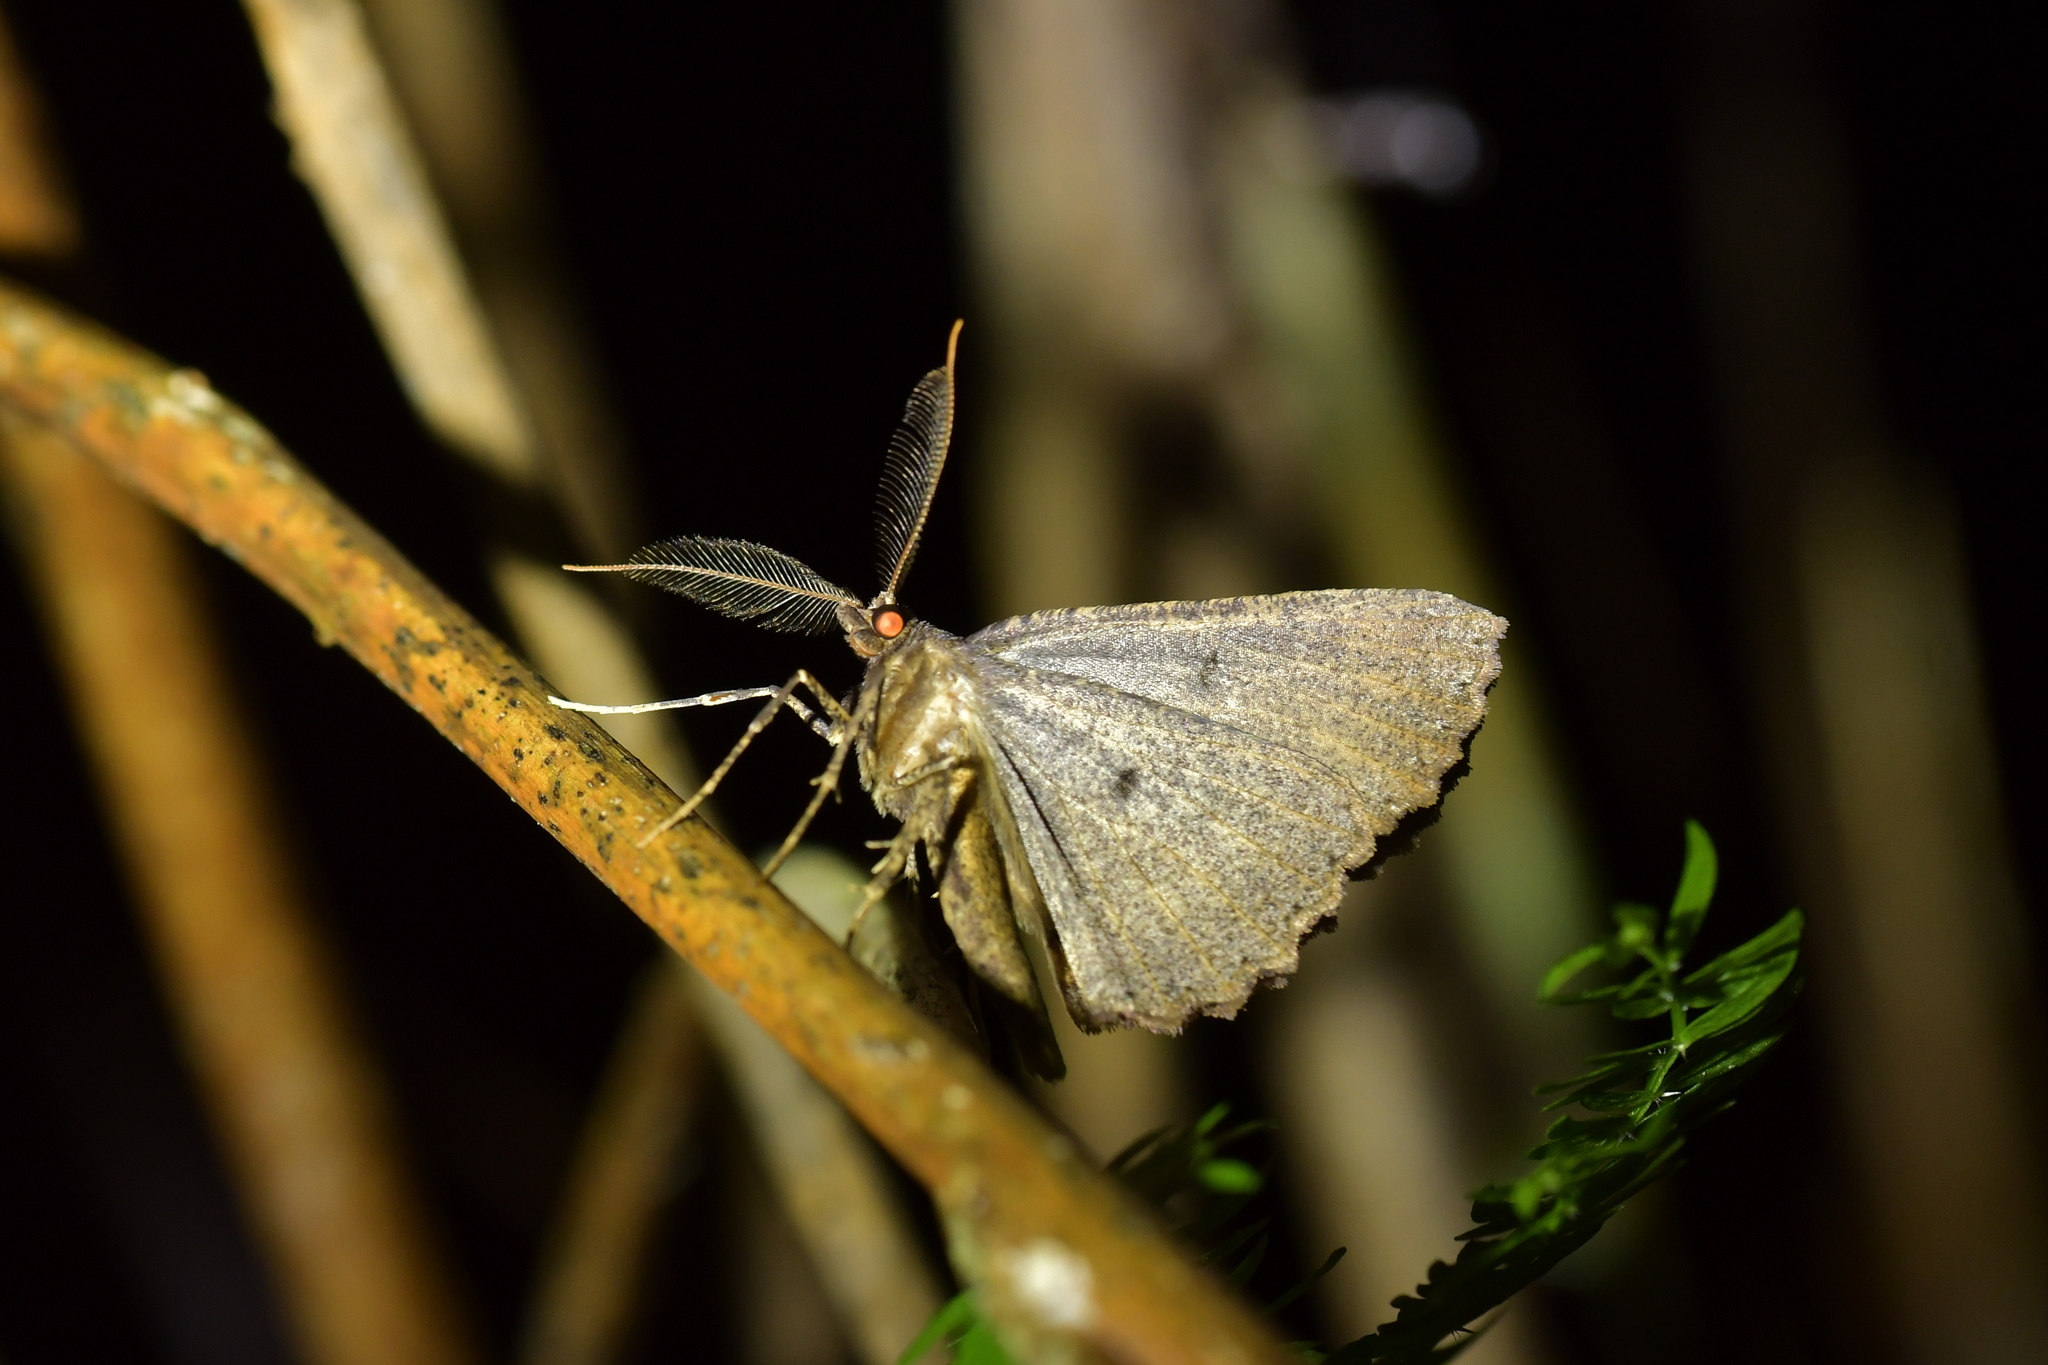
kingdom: Animalia
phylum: Arthropoda
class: Insecta
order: Lepidoptera
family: Geometridae
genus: Cleora
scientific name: Cleora scriptaria
